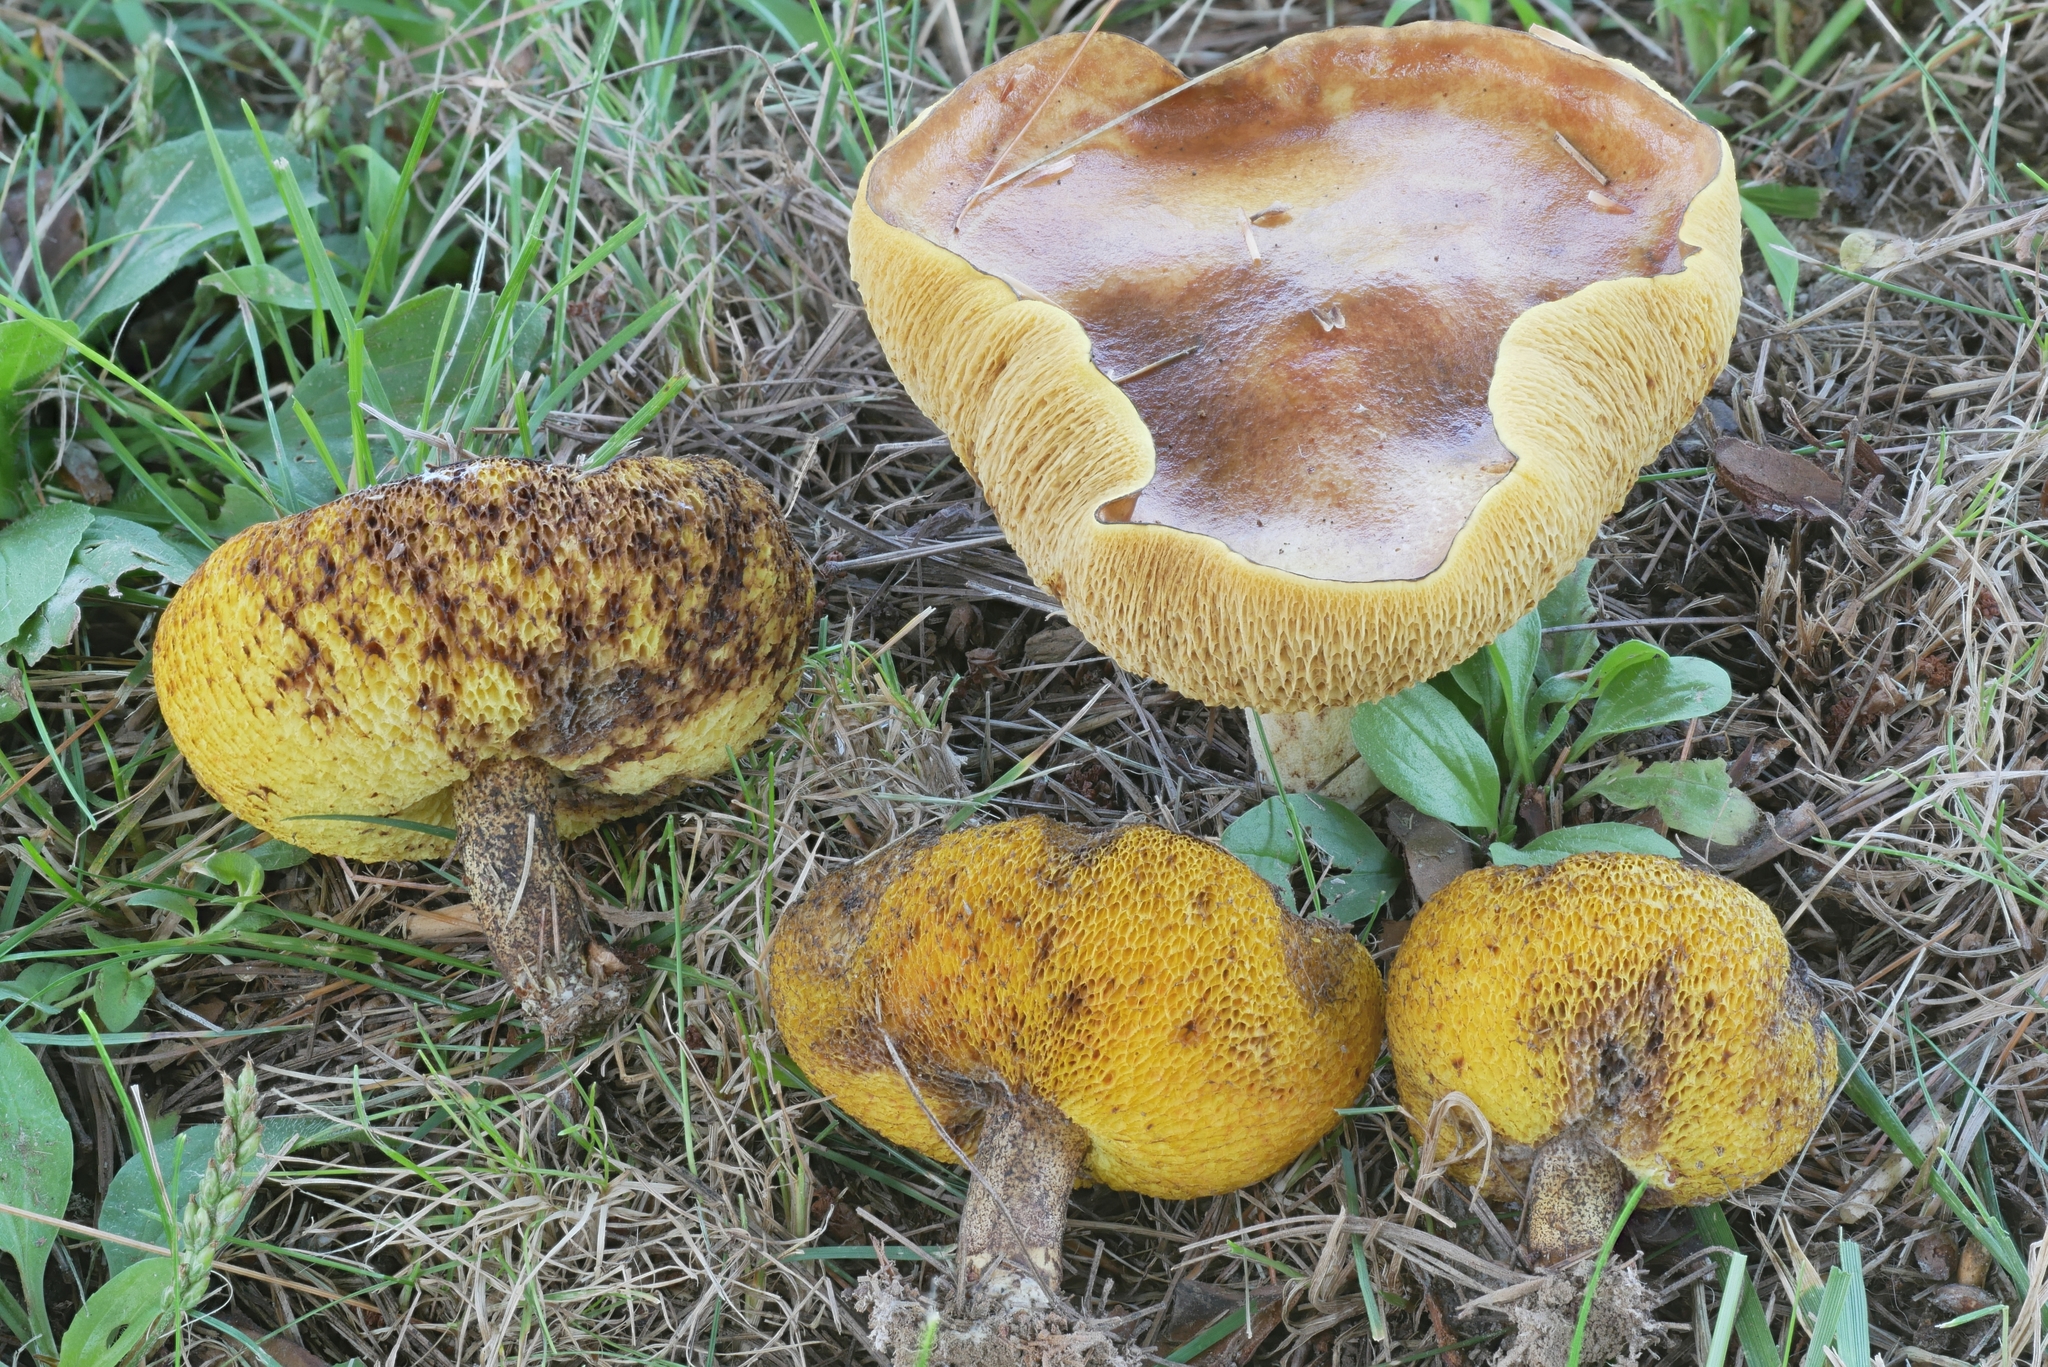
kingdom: Fungi
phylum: Basidiomycota
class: Agaricomycetes
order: Boletales
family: Suillaceae
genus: Suillus
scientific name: Suillus granulatus
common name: Weeping bolete
